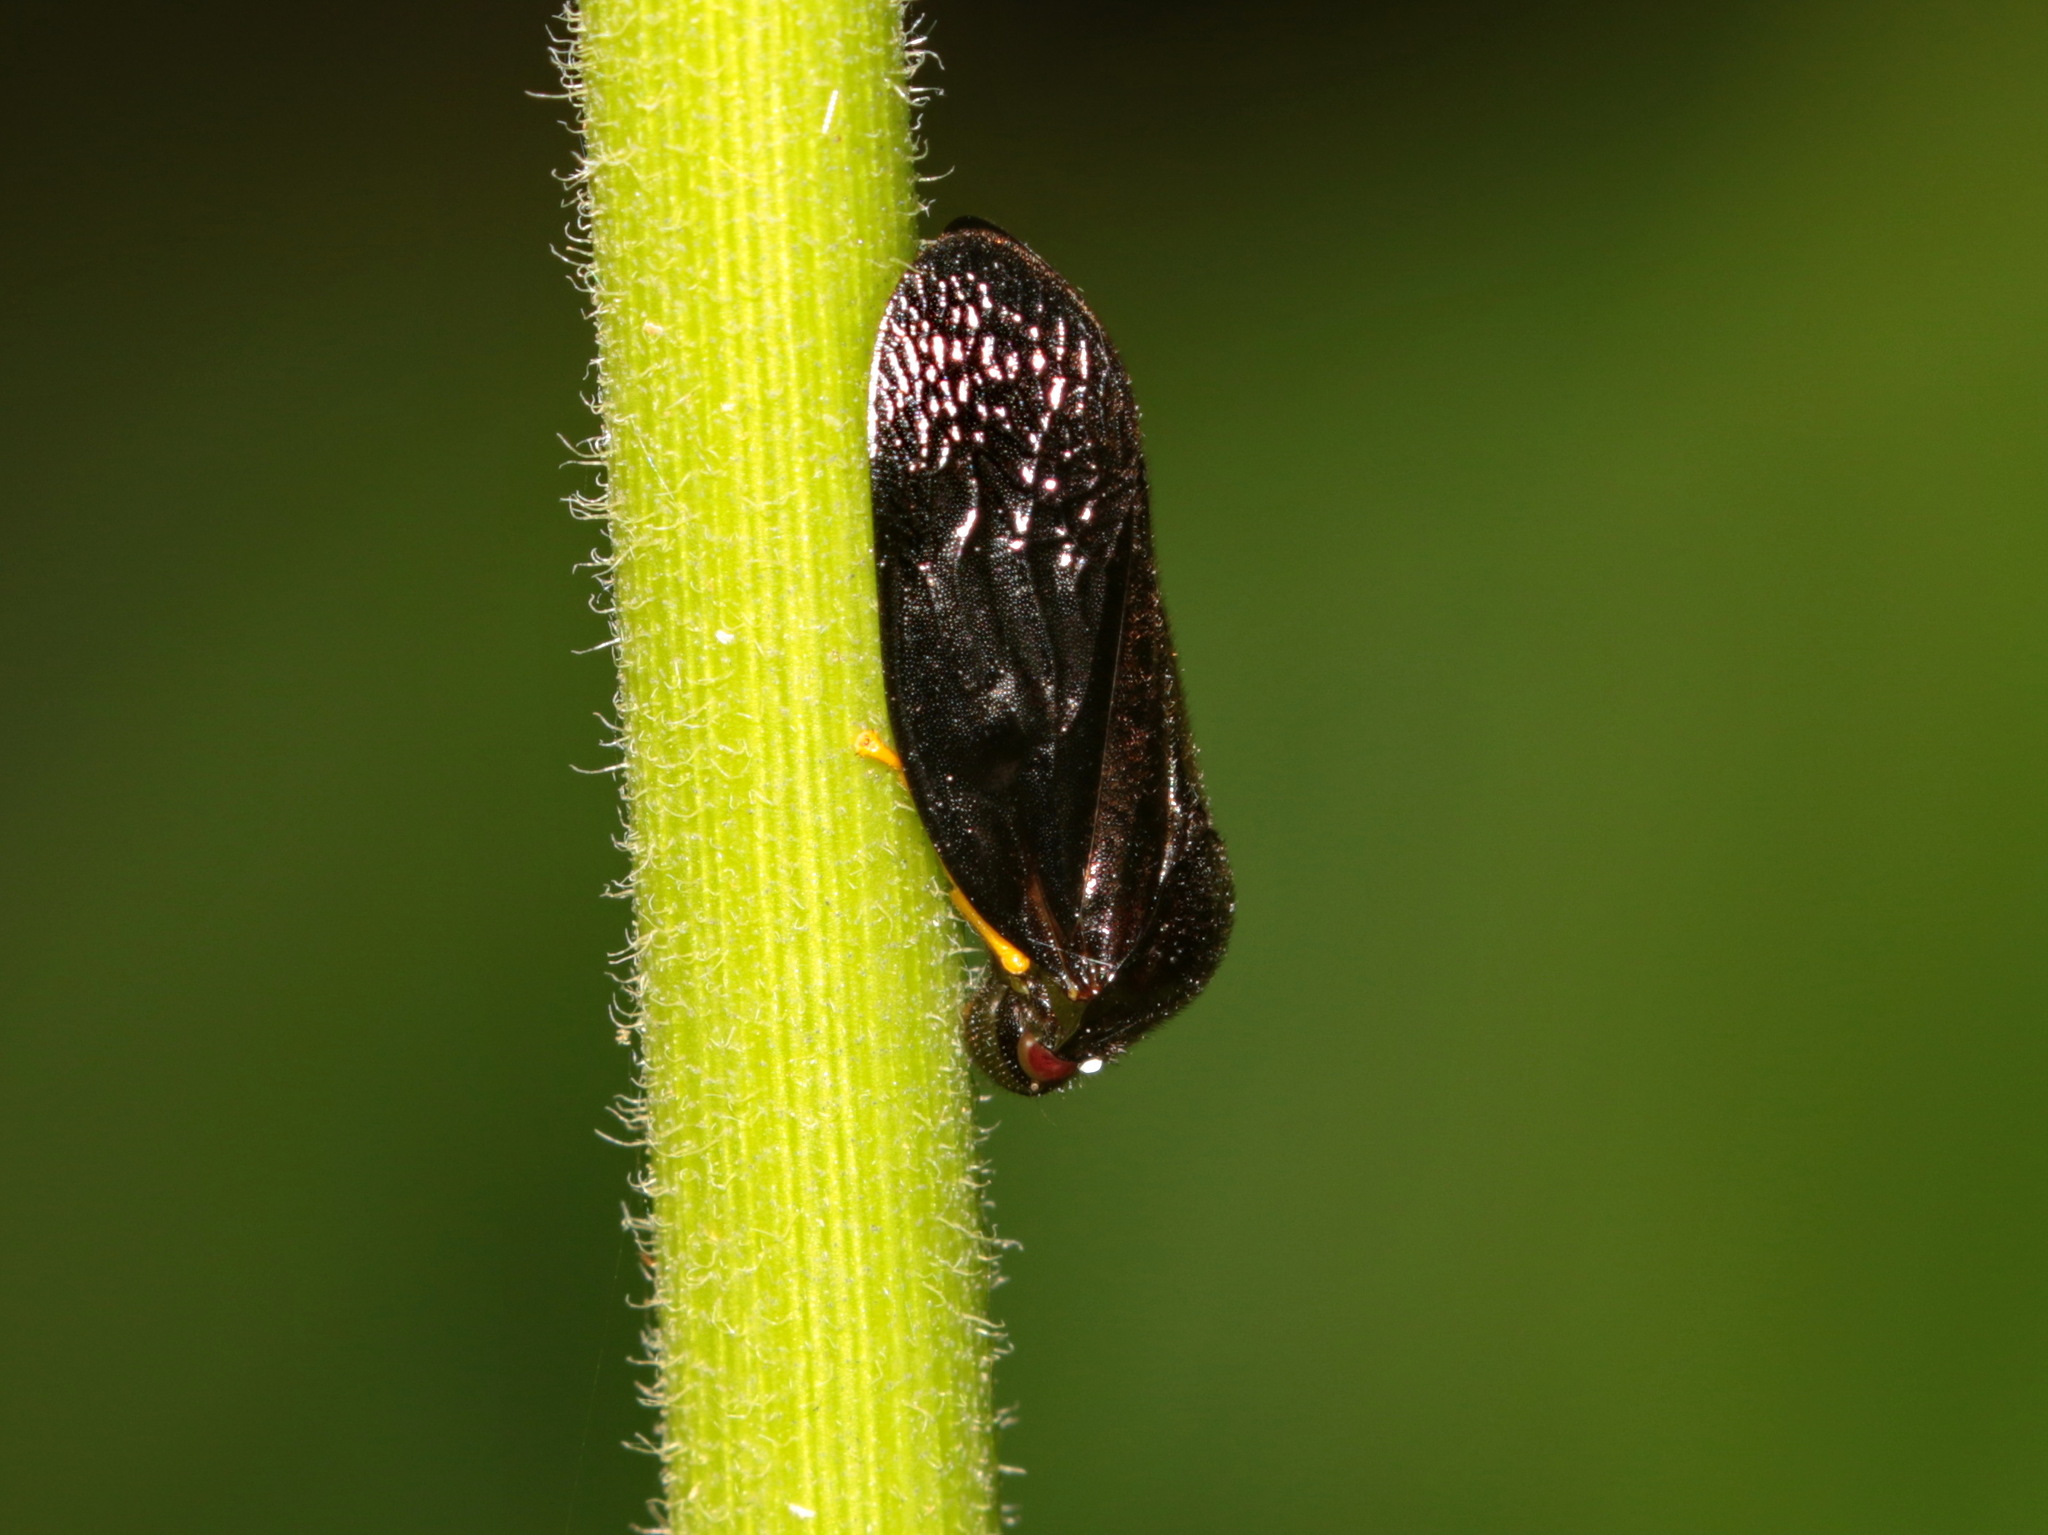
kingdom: Animalia
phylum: Arthropoda
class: Insecta
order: Hemiptera
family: Cercopidae
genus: Simeliria
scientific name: Simeliria viridans
